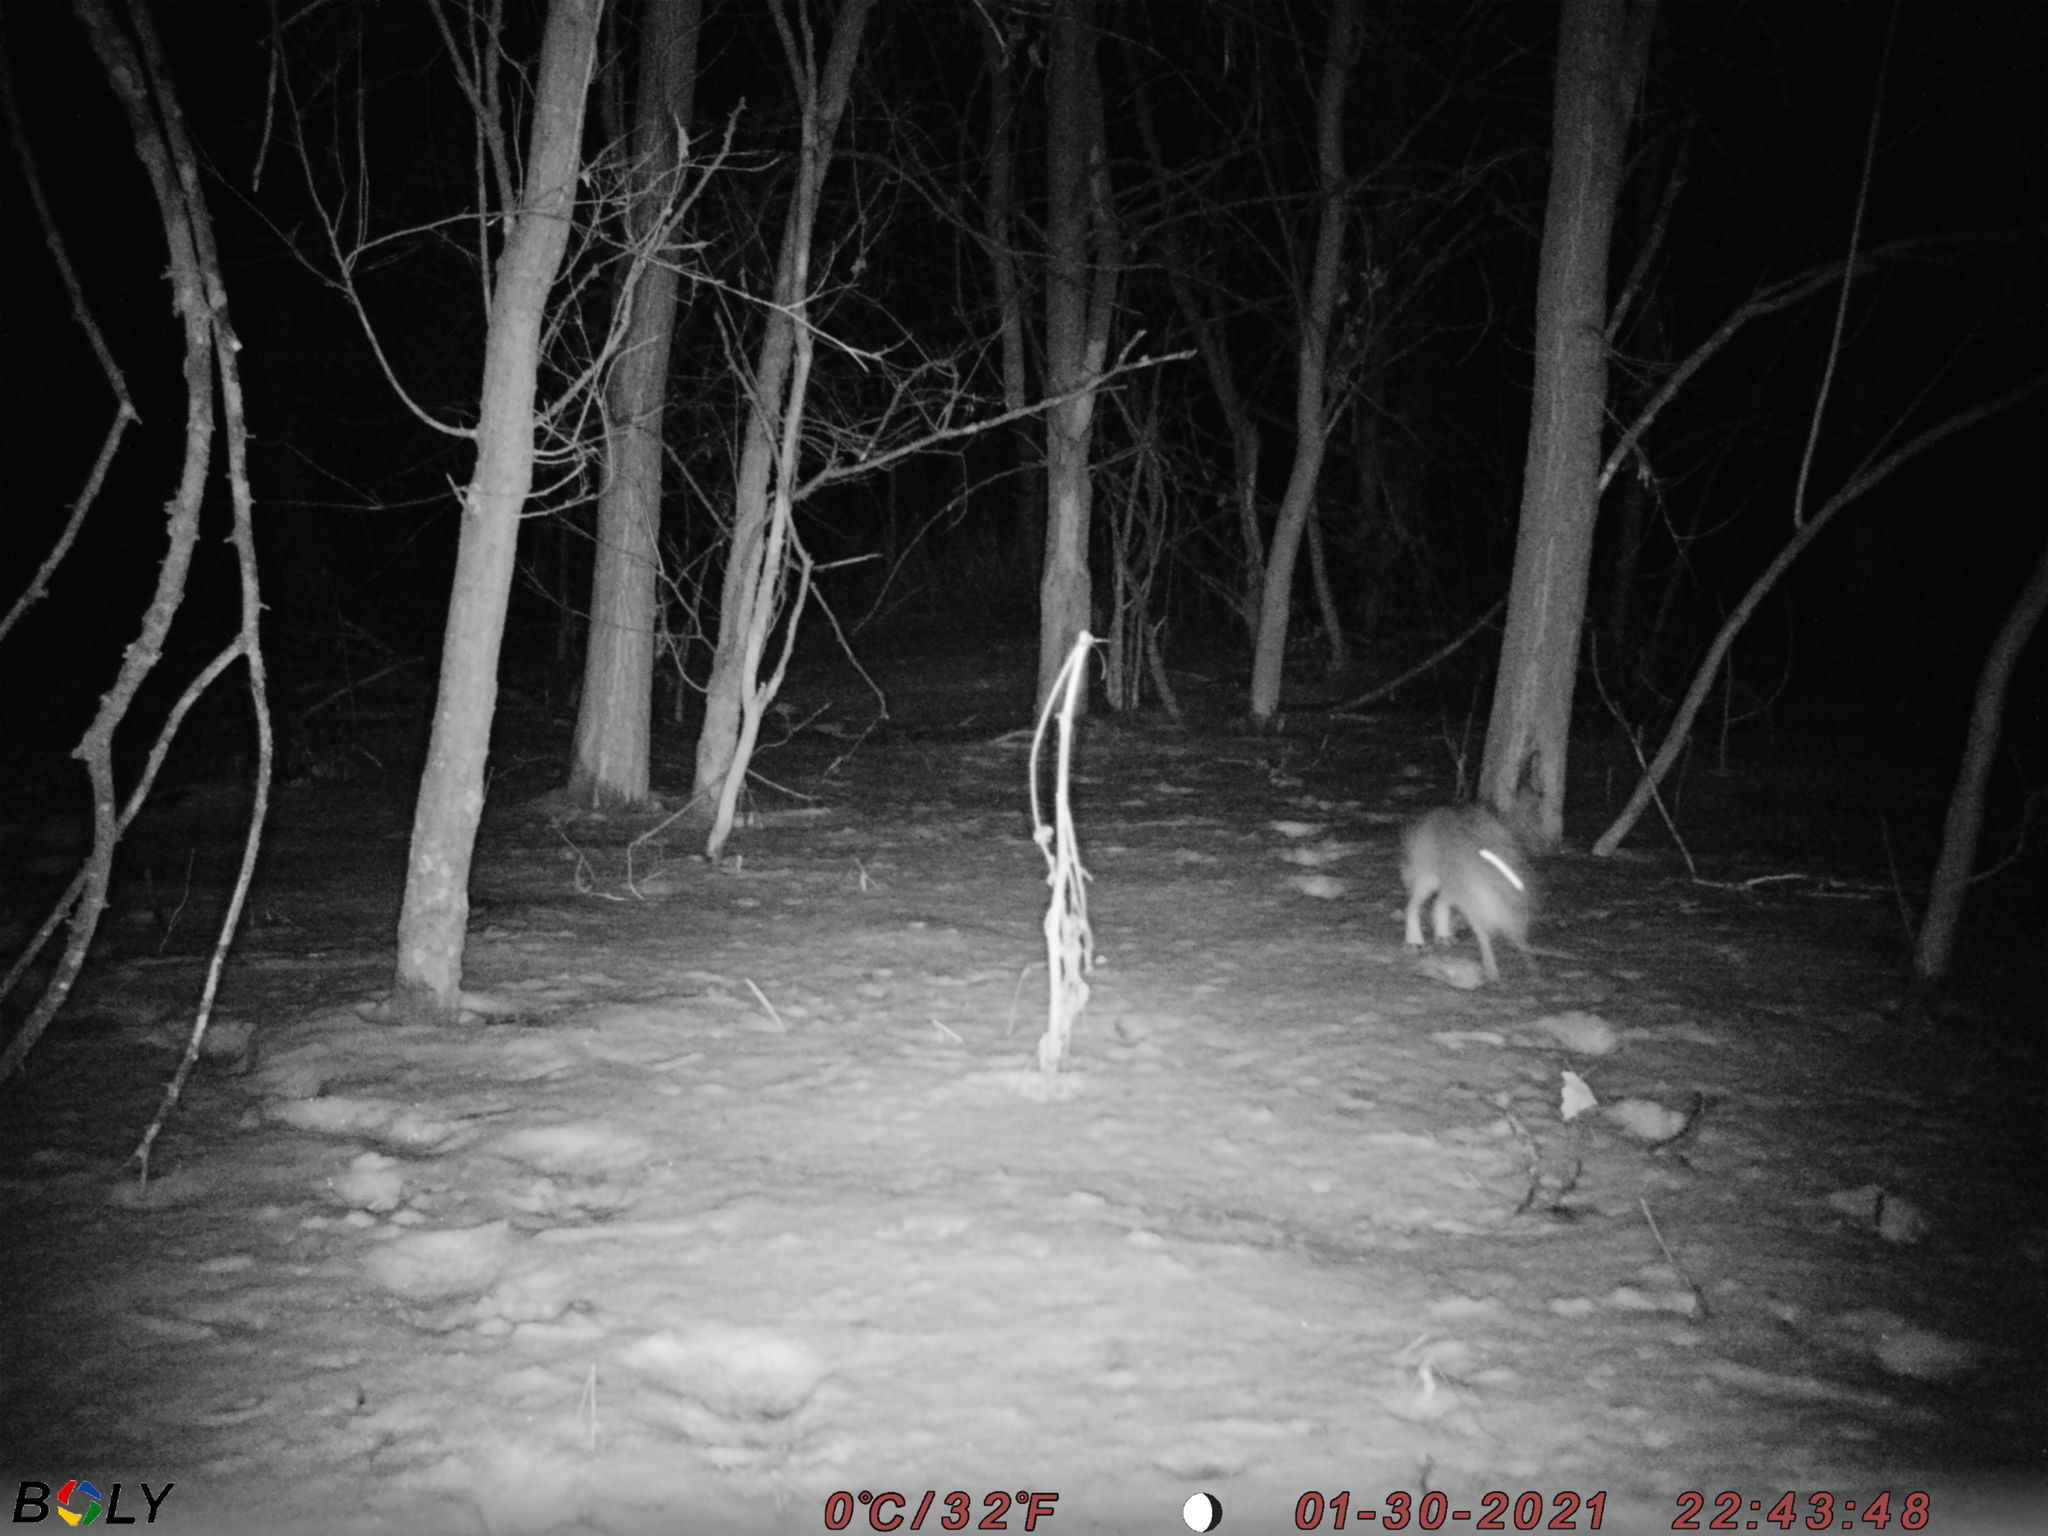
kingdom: Animalia
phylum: Chordata
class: Mammalia
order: Lagomorpha
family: Leporidae
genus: Lepus
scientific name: Lepus europaeus
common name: European hare
